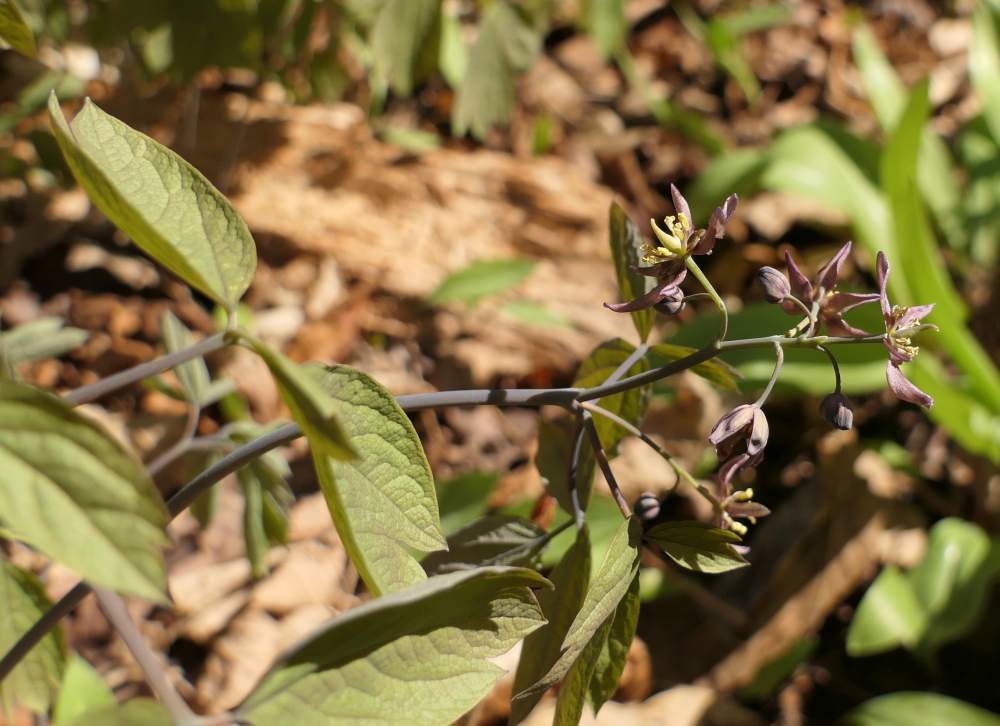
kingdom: Plantae
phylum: Tracheophyta
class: Magnoliopsida
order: Ranunculales
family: Berberidaceae
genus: Caulophyllum
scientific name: Caulophyllum giganteum
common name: Blue cohosh
